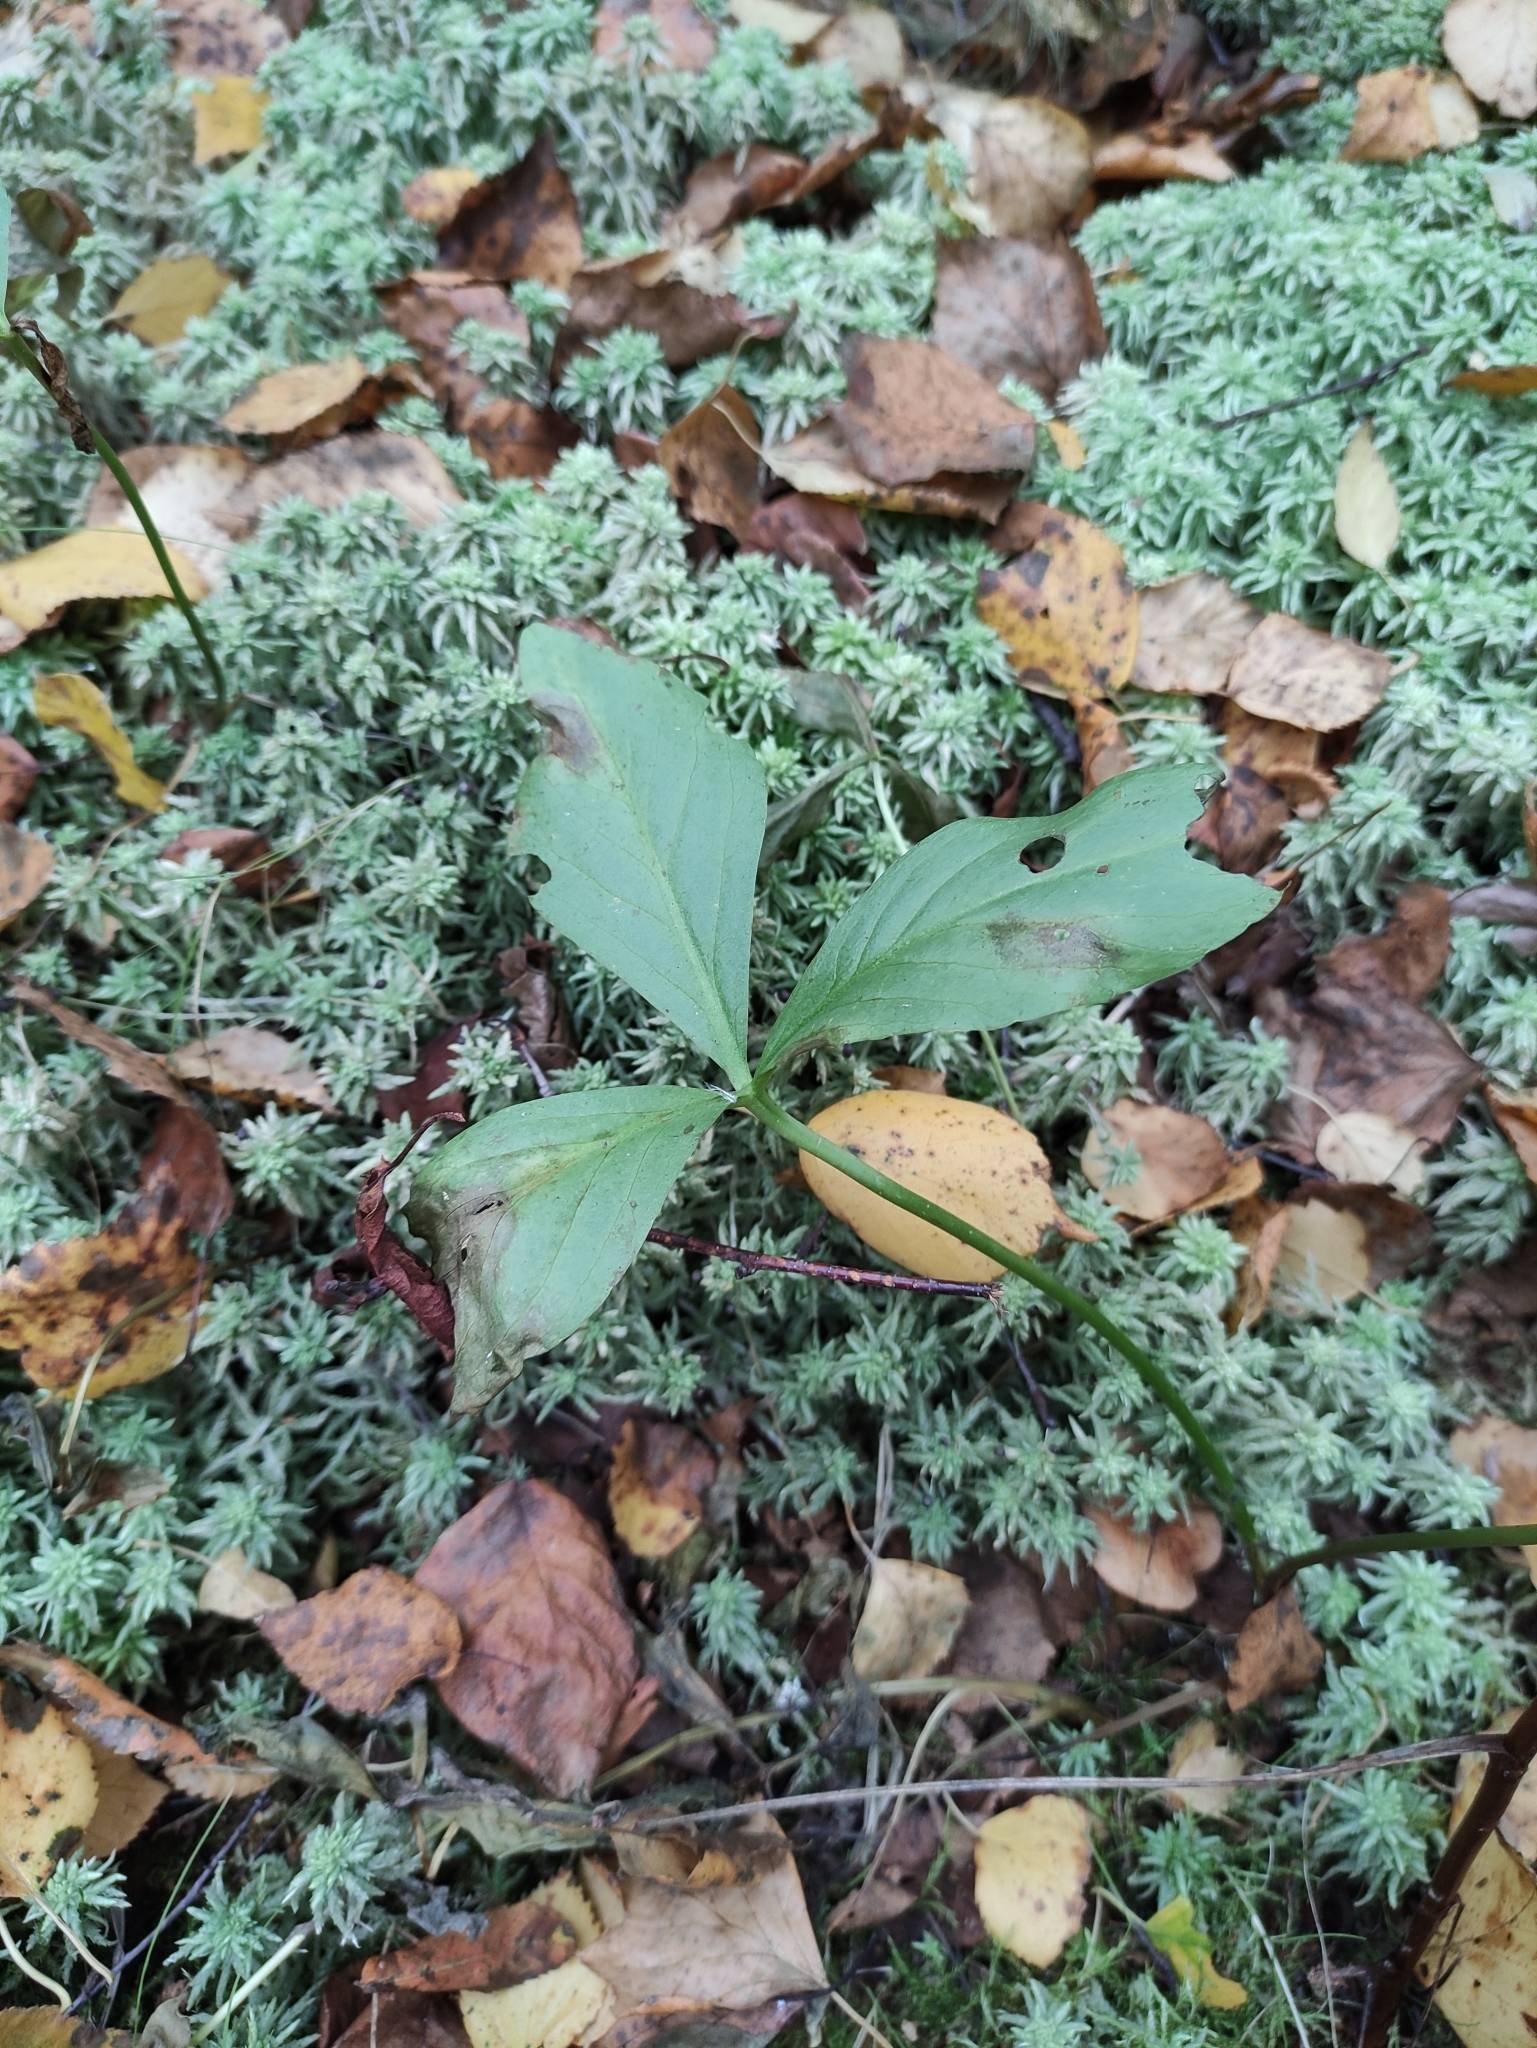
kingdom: Plantae
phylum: Tracheophyta
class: Magnoliopsida
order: Asterales
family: Menyanthaceae
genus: Menyanthes
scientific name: Menyanthes trifoliata
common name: Bogbean
